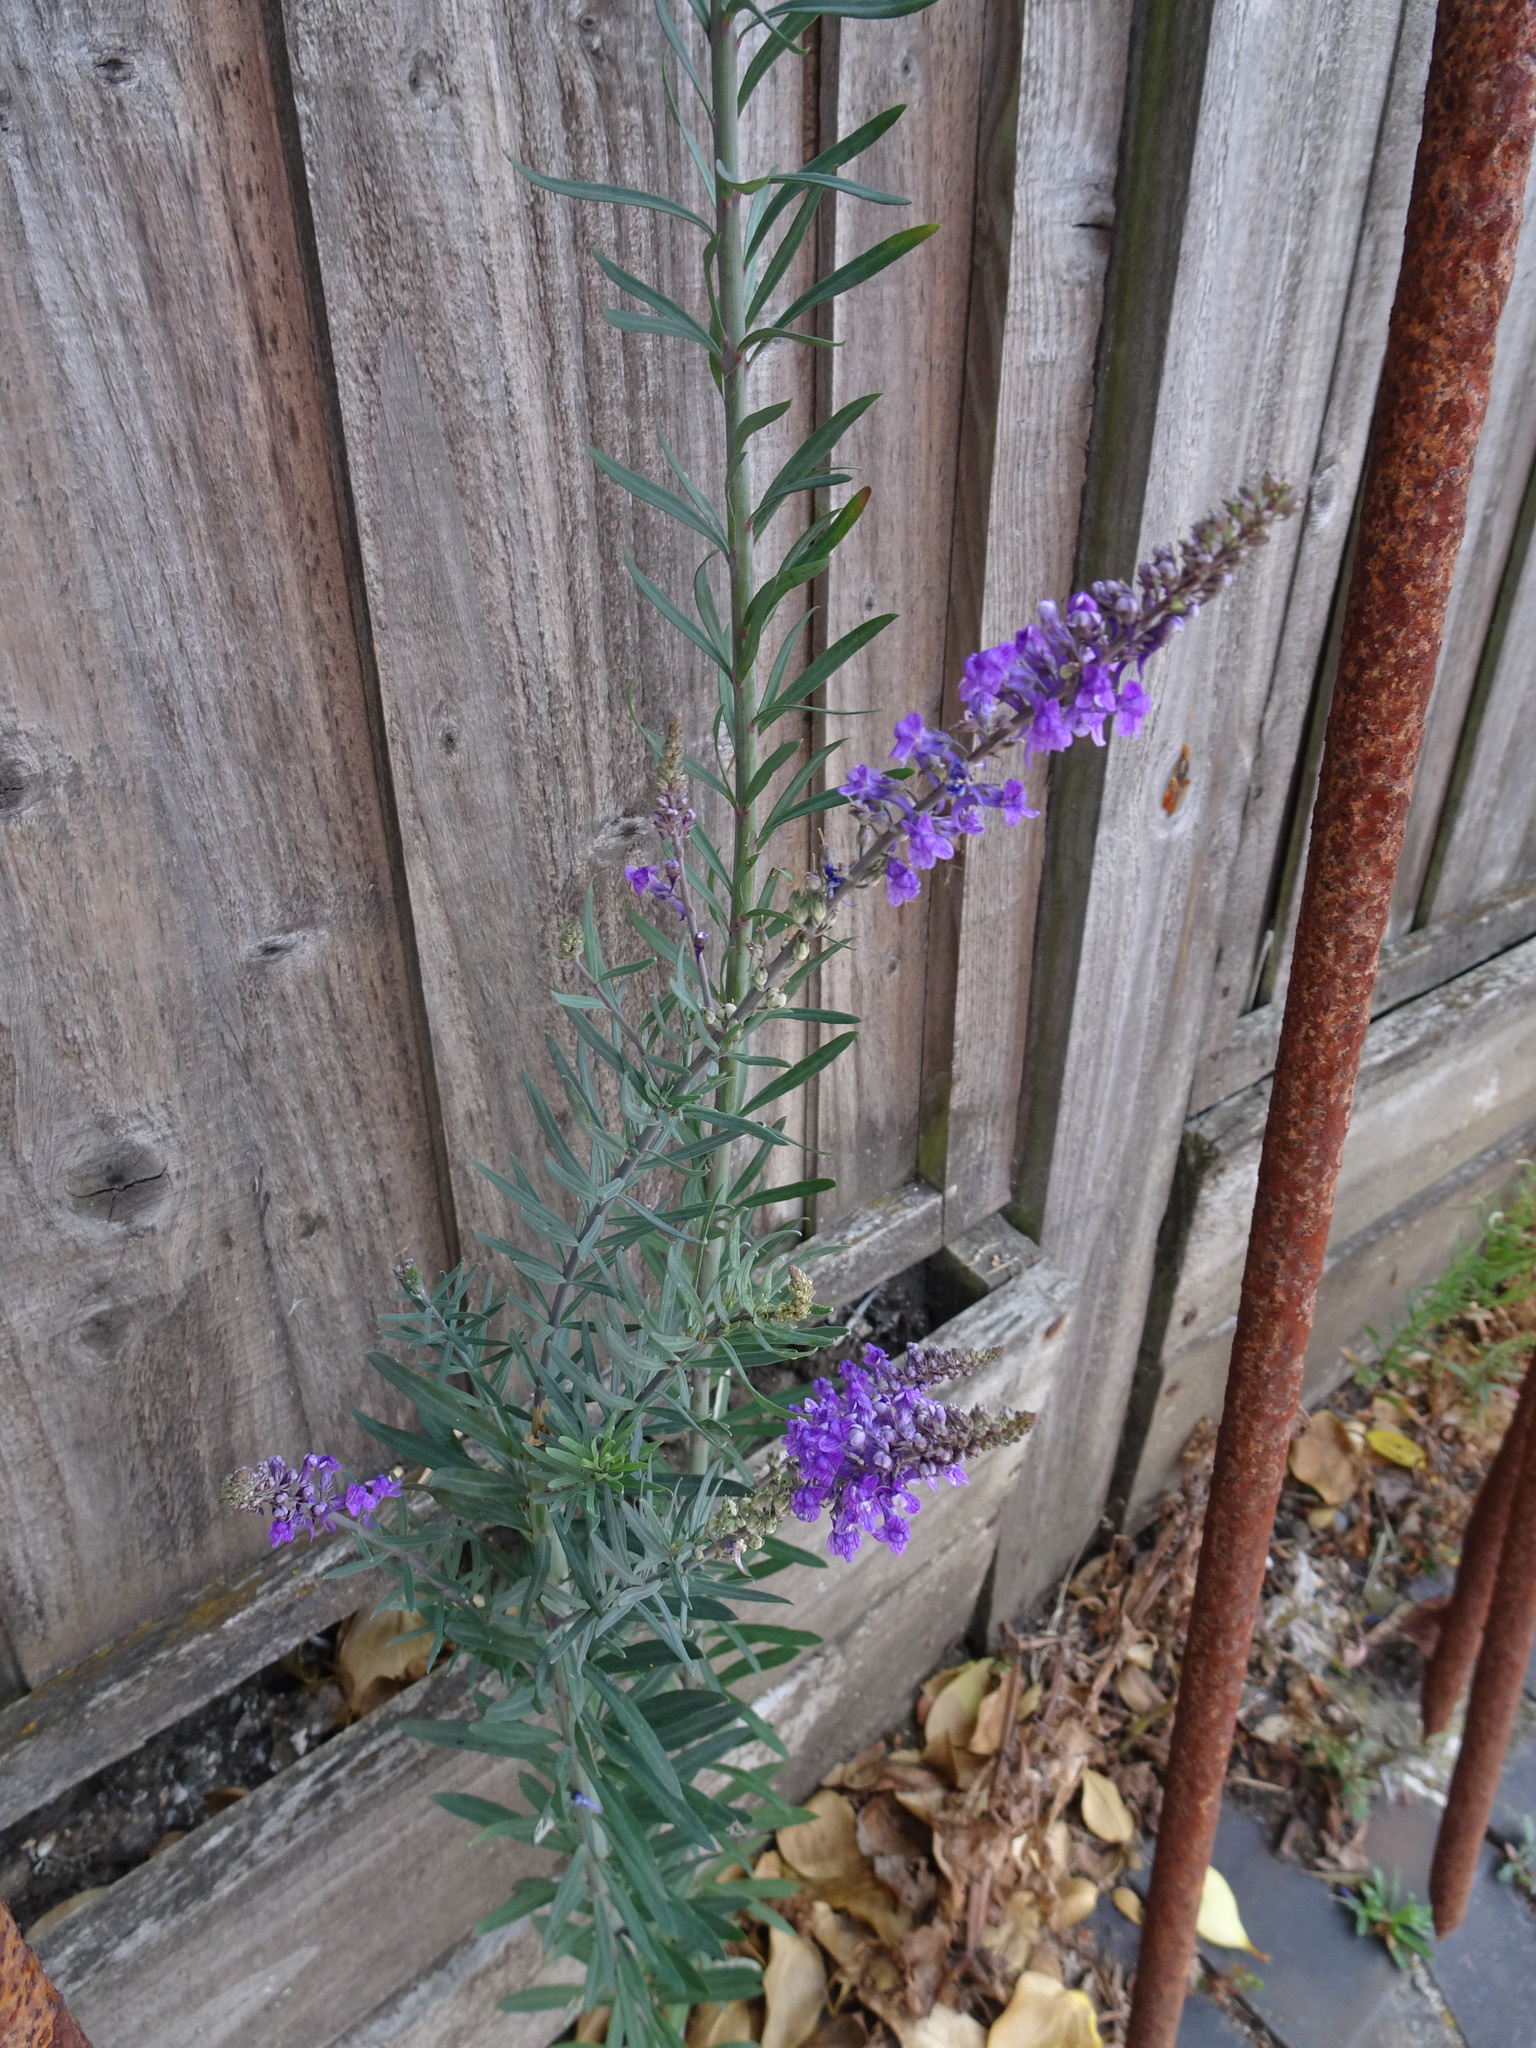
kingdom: Plantae
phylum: Tracheophyta
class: Magnoliopsida
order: Lamiales
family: Plantaginaceae
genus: Linaria
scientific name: Linaria purpurea
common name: Purple toadflax
